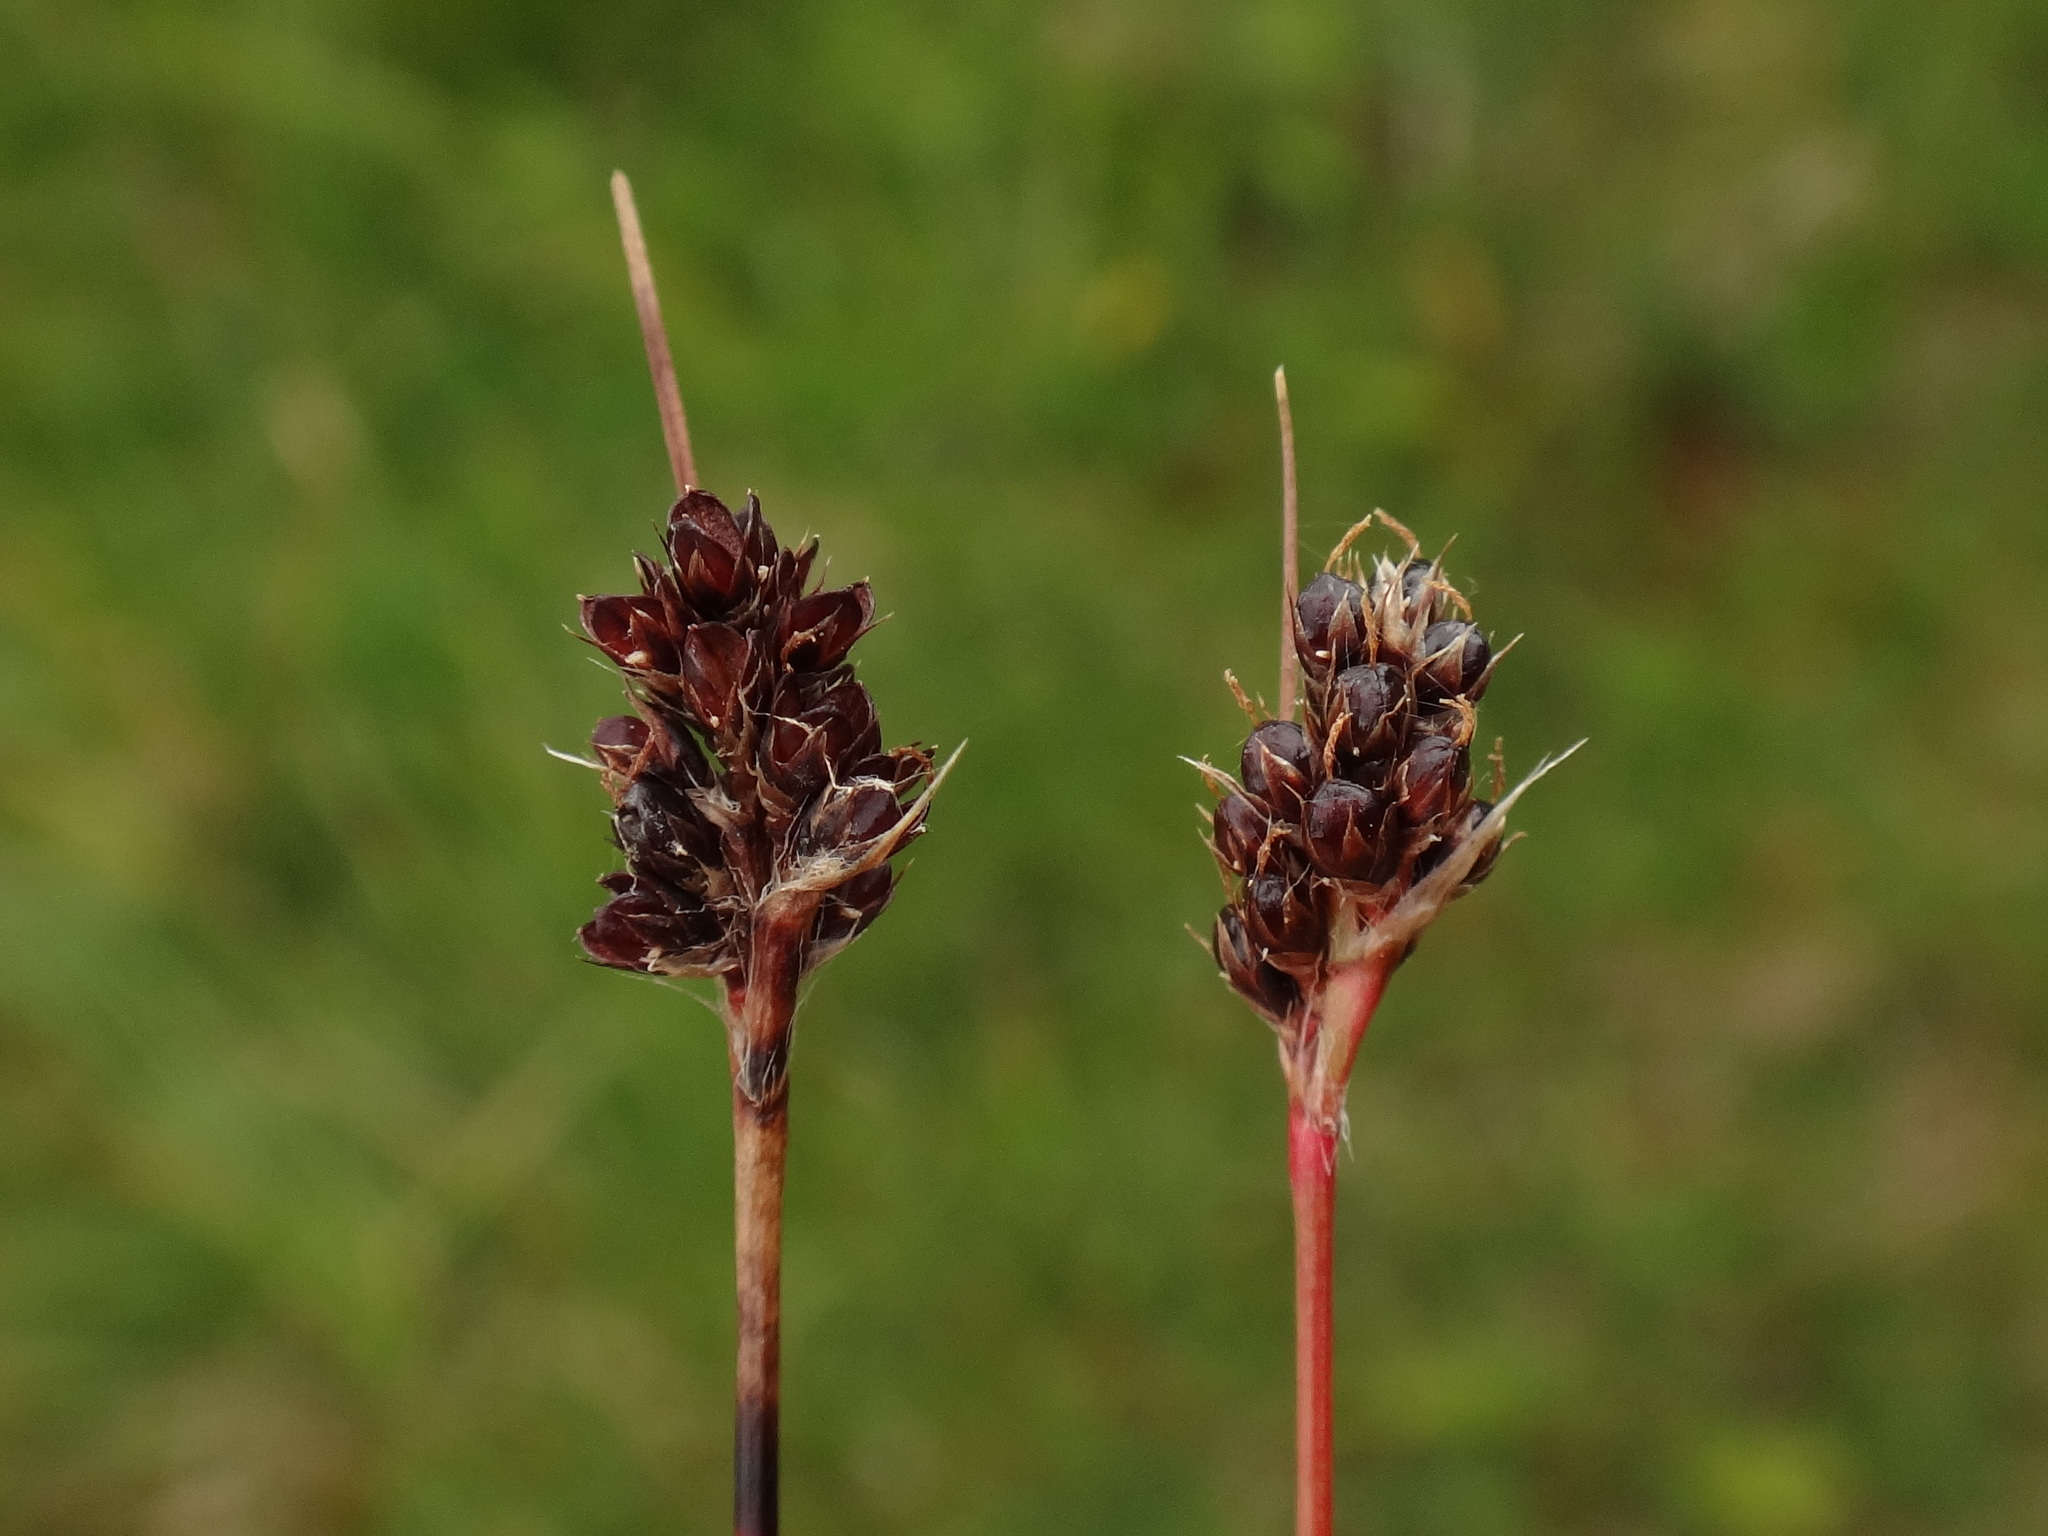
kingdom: Plantae
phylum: Tracheophyta
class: Liliopsida
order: Poales
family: Juncaceae
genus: Luzula
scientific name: Luzula sudetica
